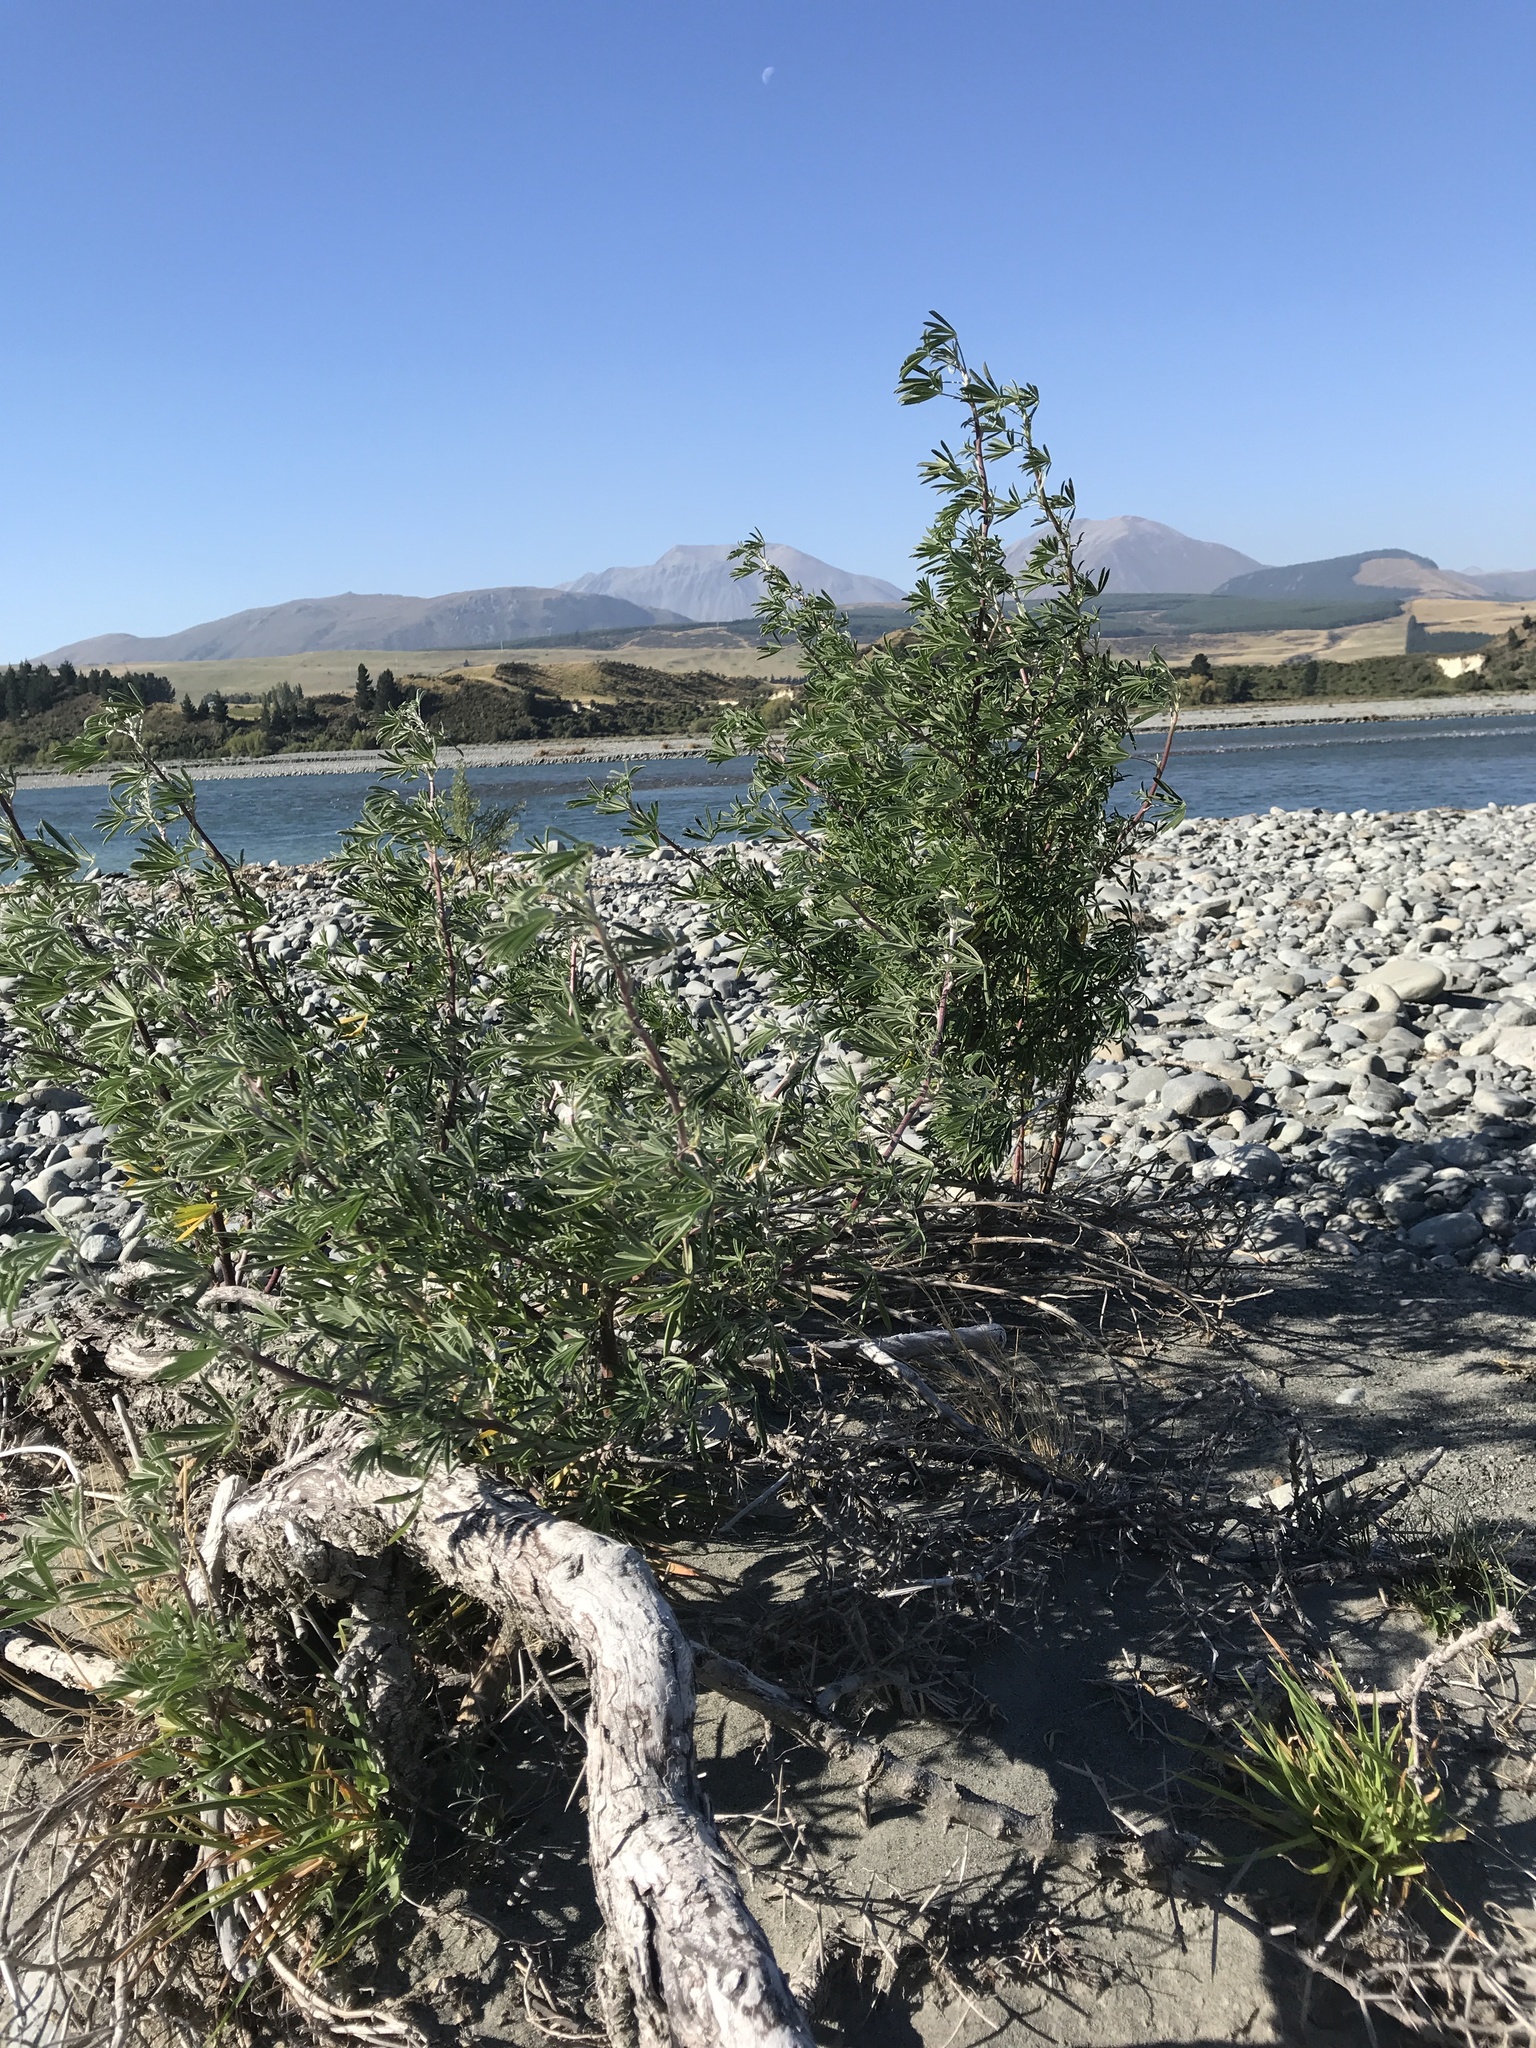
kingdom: Plantae
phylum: Tracheophyta
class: Magnoliopsida
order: Fabales
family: Fabaceae
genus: Lupinus
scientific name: Lupinus arboreus
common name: Yellow bush lupine
